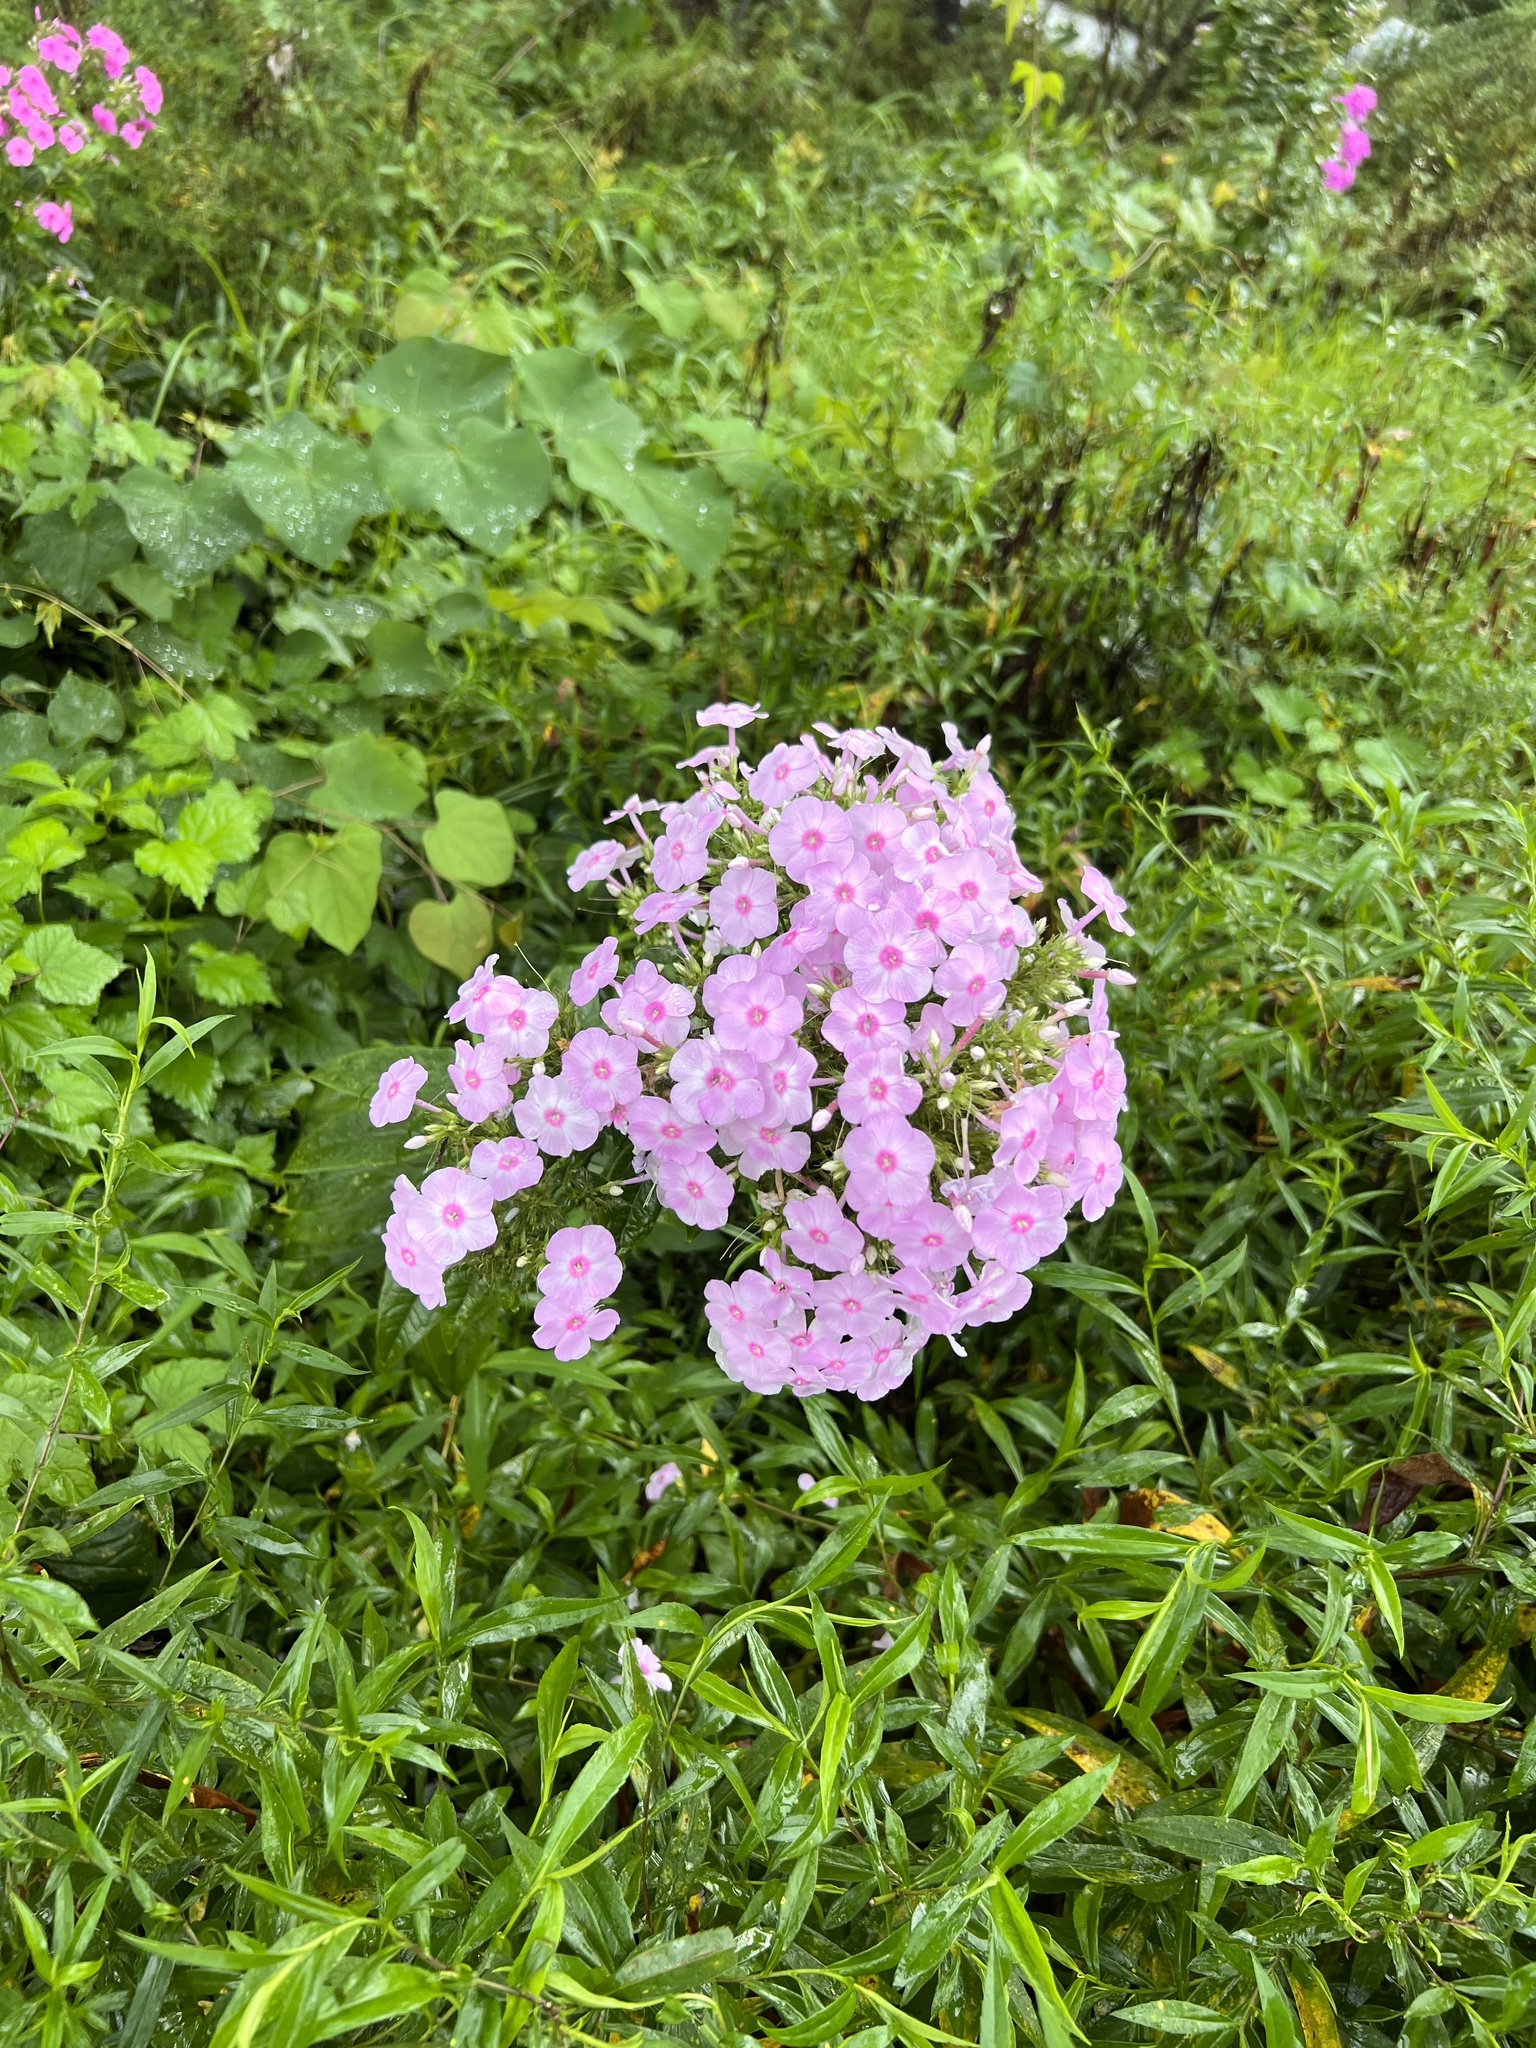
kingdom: Plantae
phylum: Tracheophyta
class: Magnoliopsida
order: Ericales
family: Polemoniaceae
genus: Phlox
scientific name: Phlox paniculata
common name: Fall phlox
